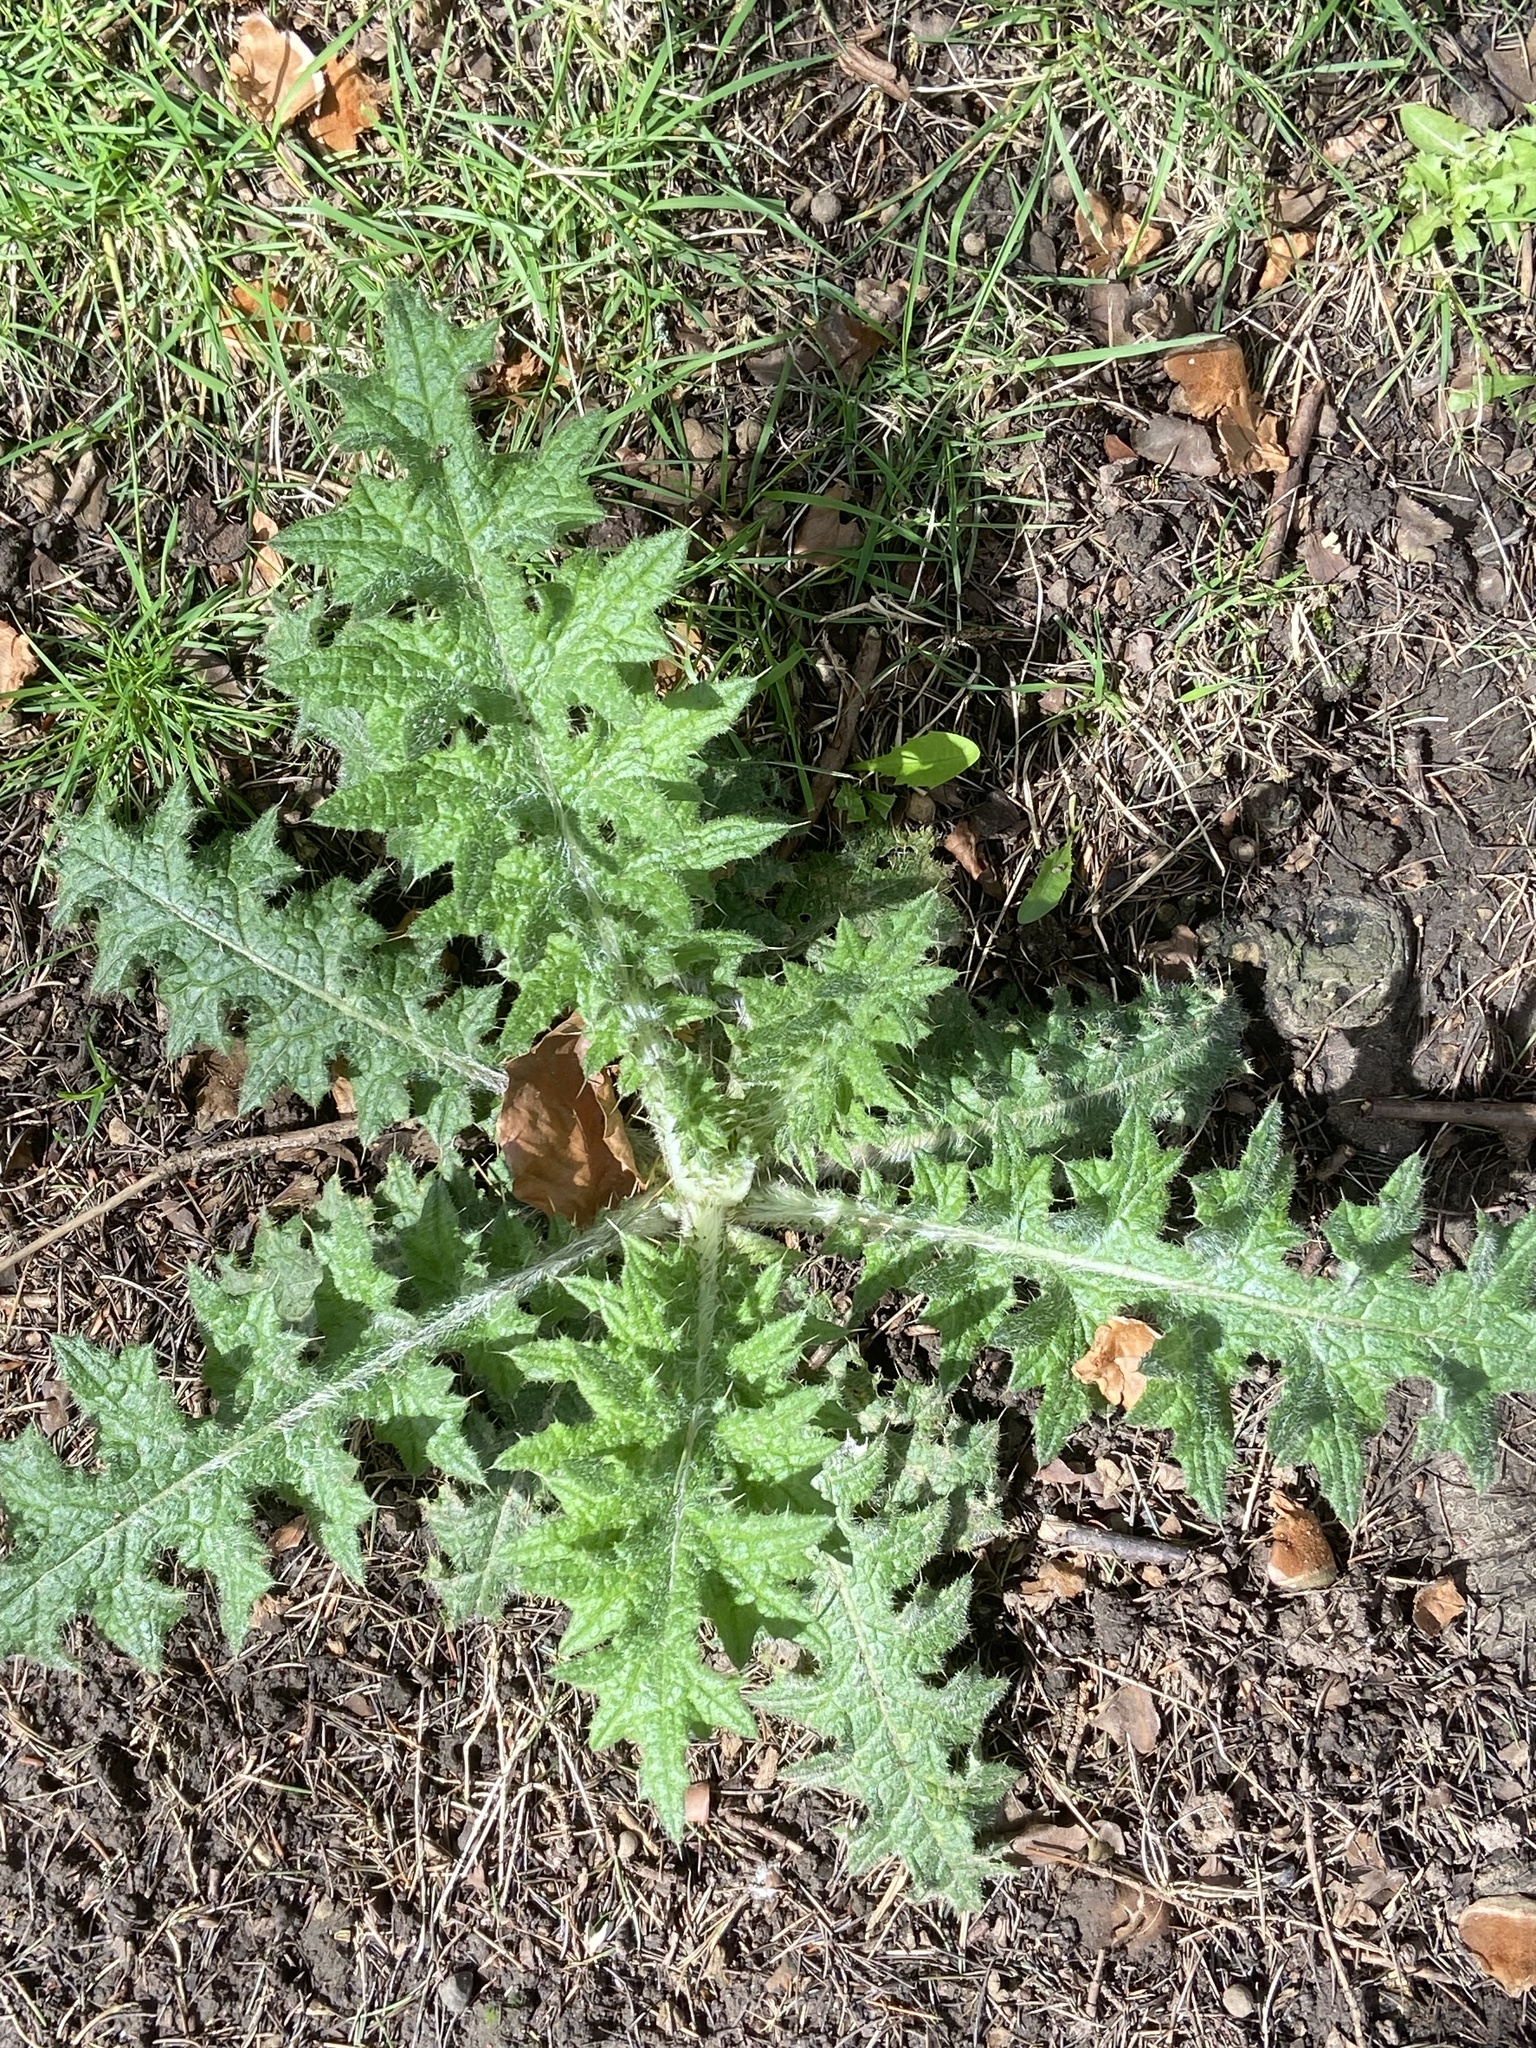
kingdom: Plantae
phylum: Tracheophyta
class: Magnoliopsida
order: Asterales
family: Asteraceae
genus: Cirsium
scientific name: Cirsium vulgare
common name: Bull thistle
